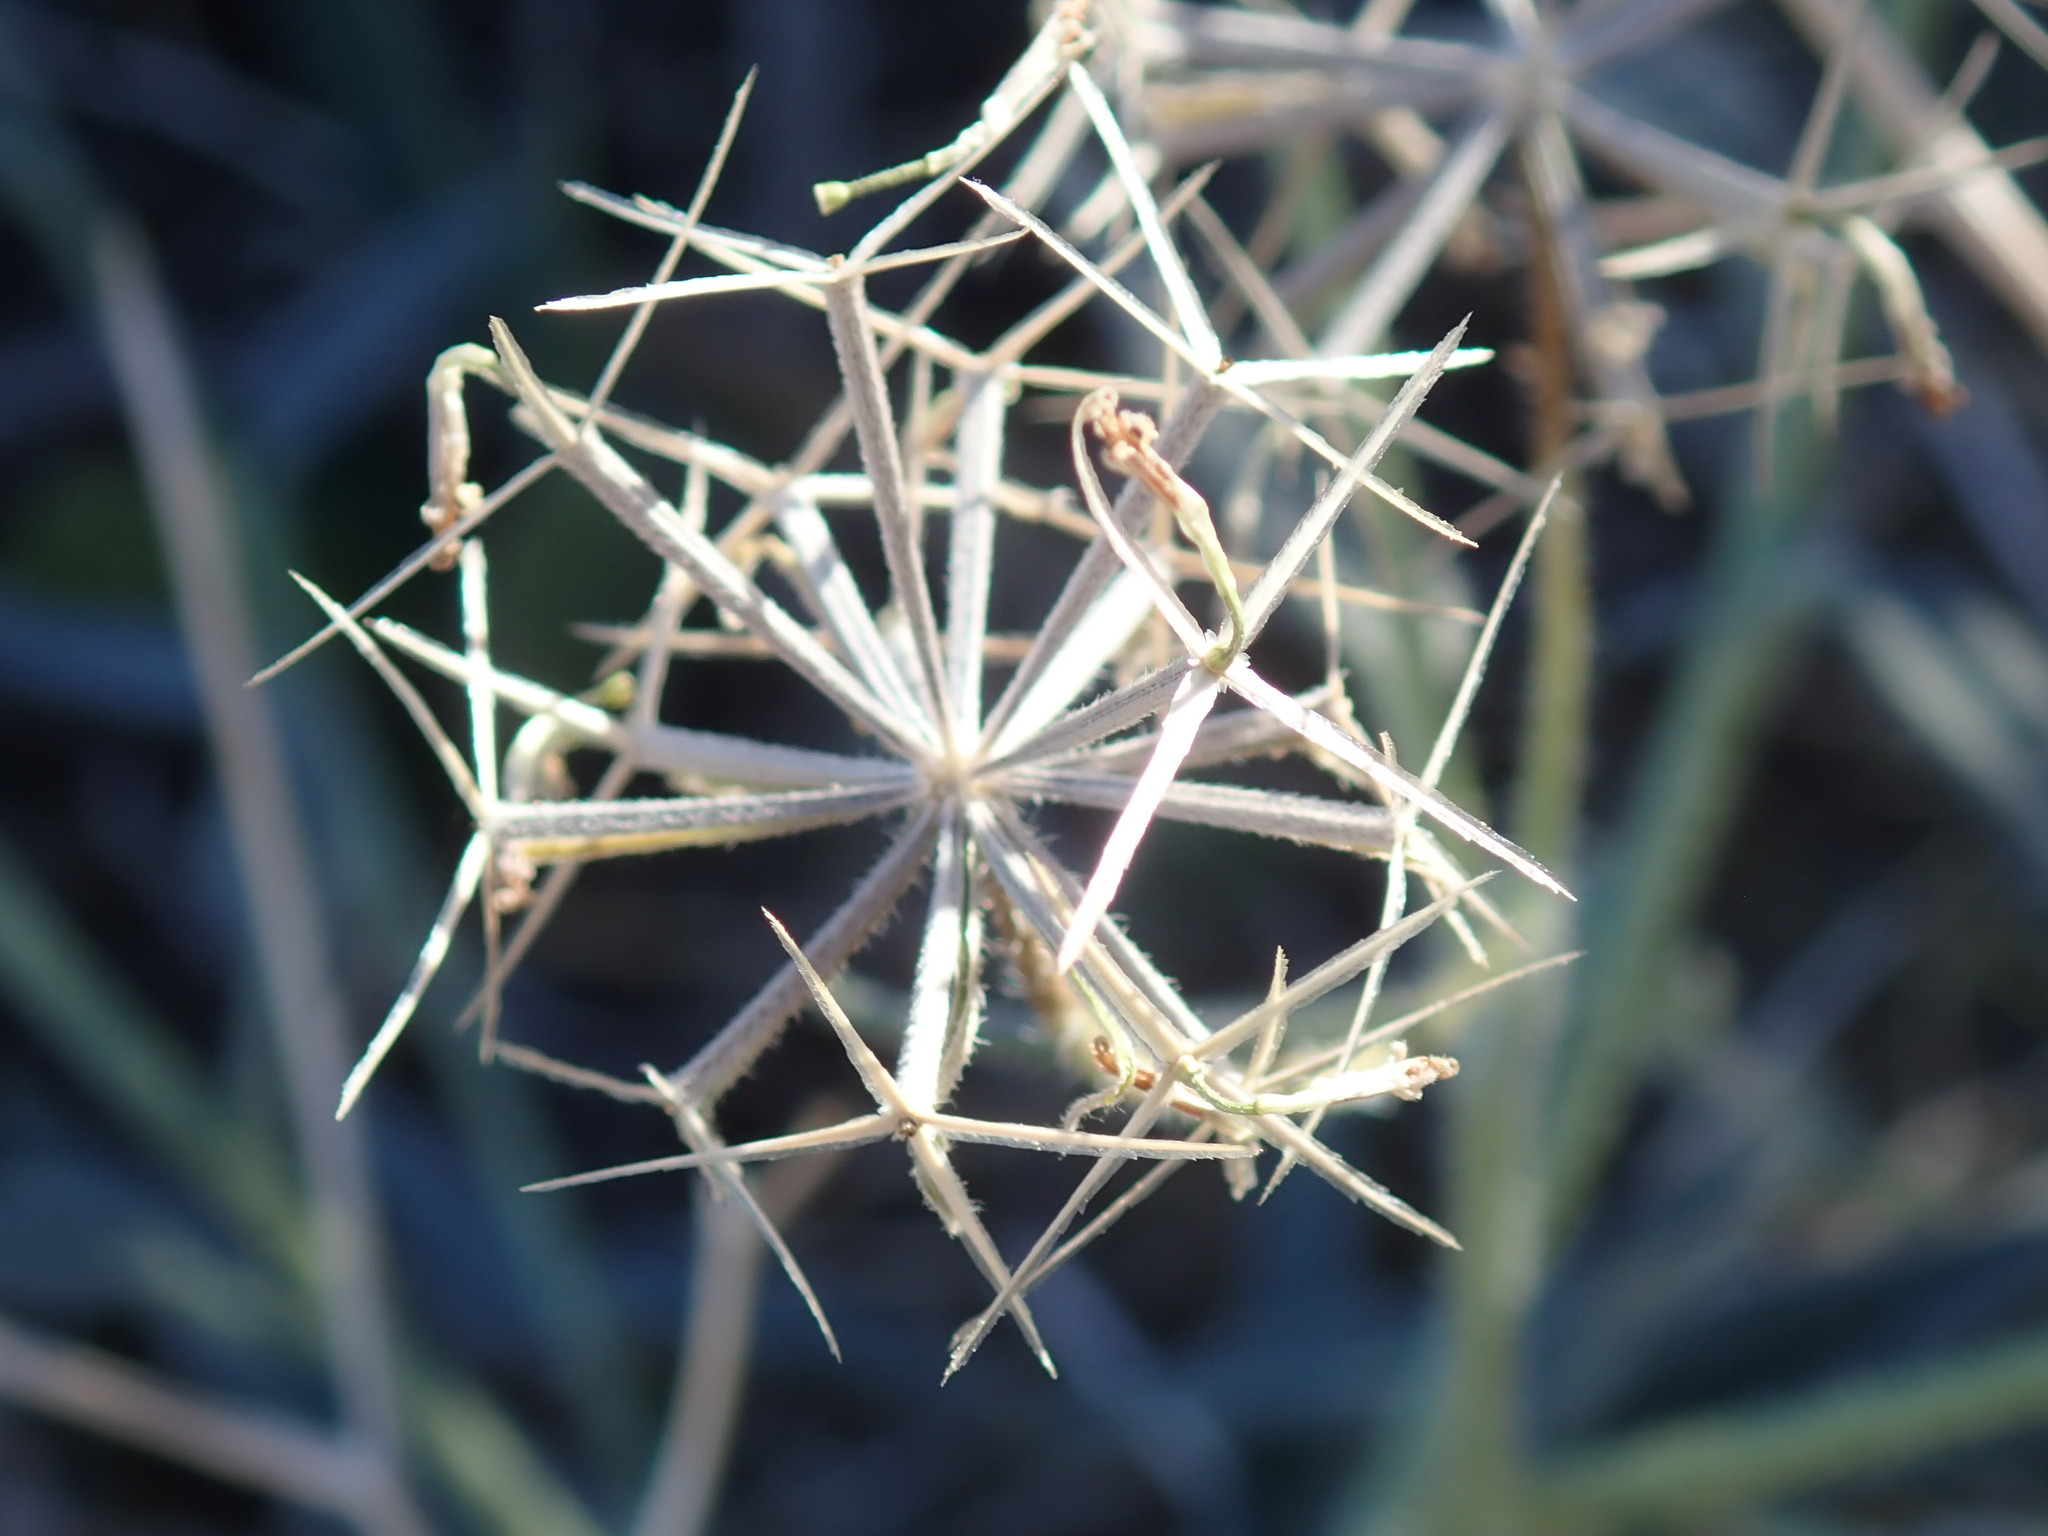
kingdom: Plantae
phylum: Tracheophyta
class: Magnoliopsida
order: Asterales
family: Asteraceae
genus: Palafoxia
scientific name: Palafoxia arida
